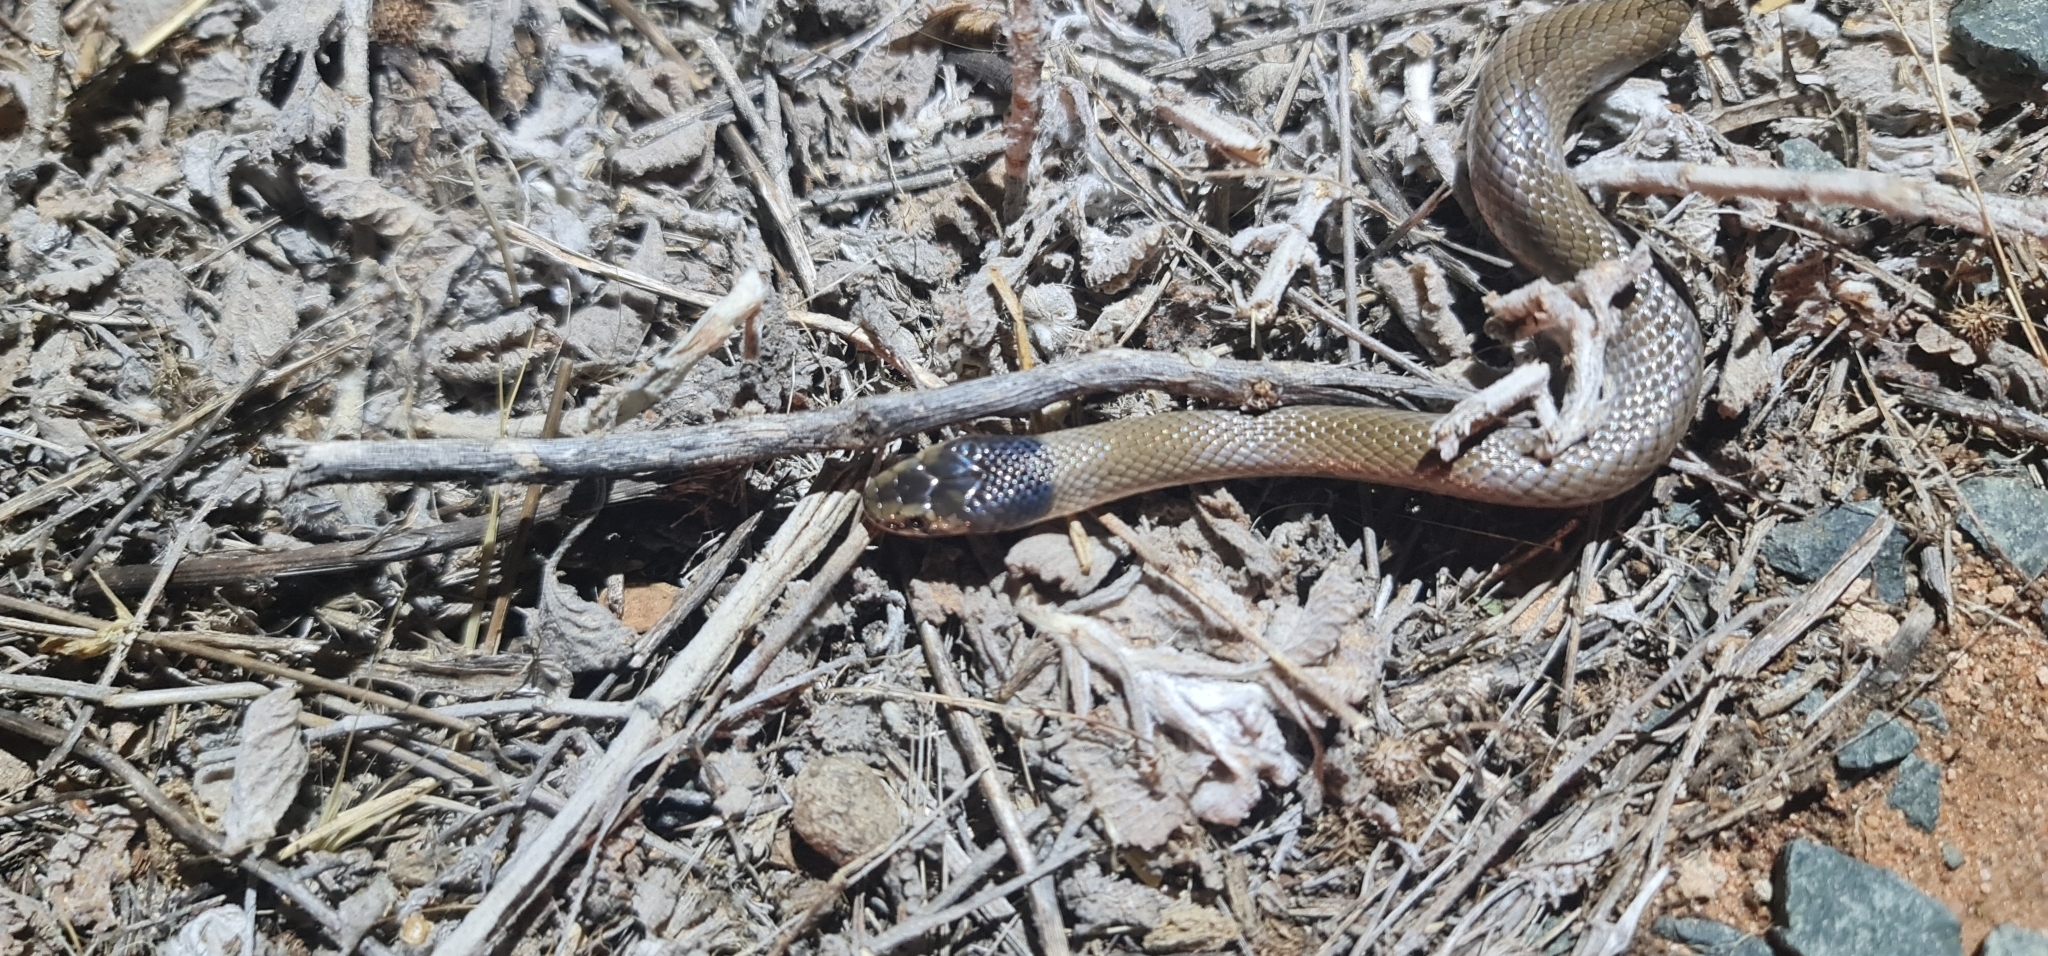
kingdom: Animalia
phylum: Chordata
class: Squamata
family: Elapidae
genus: Suta
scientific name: Suta suta
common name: Curl snake
